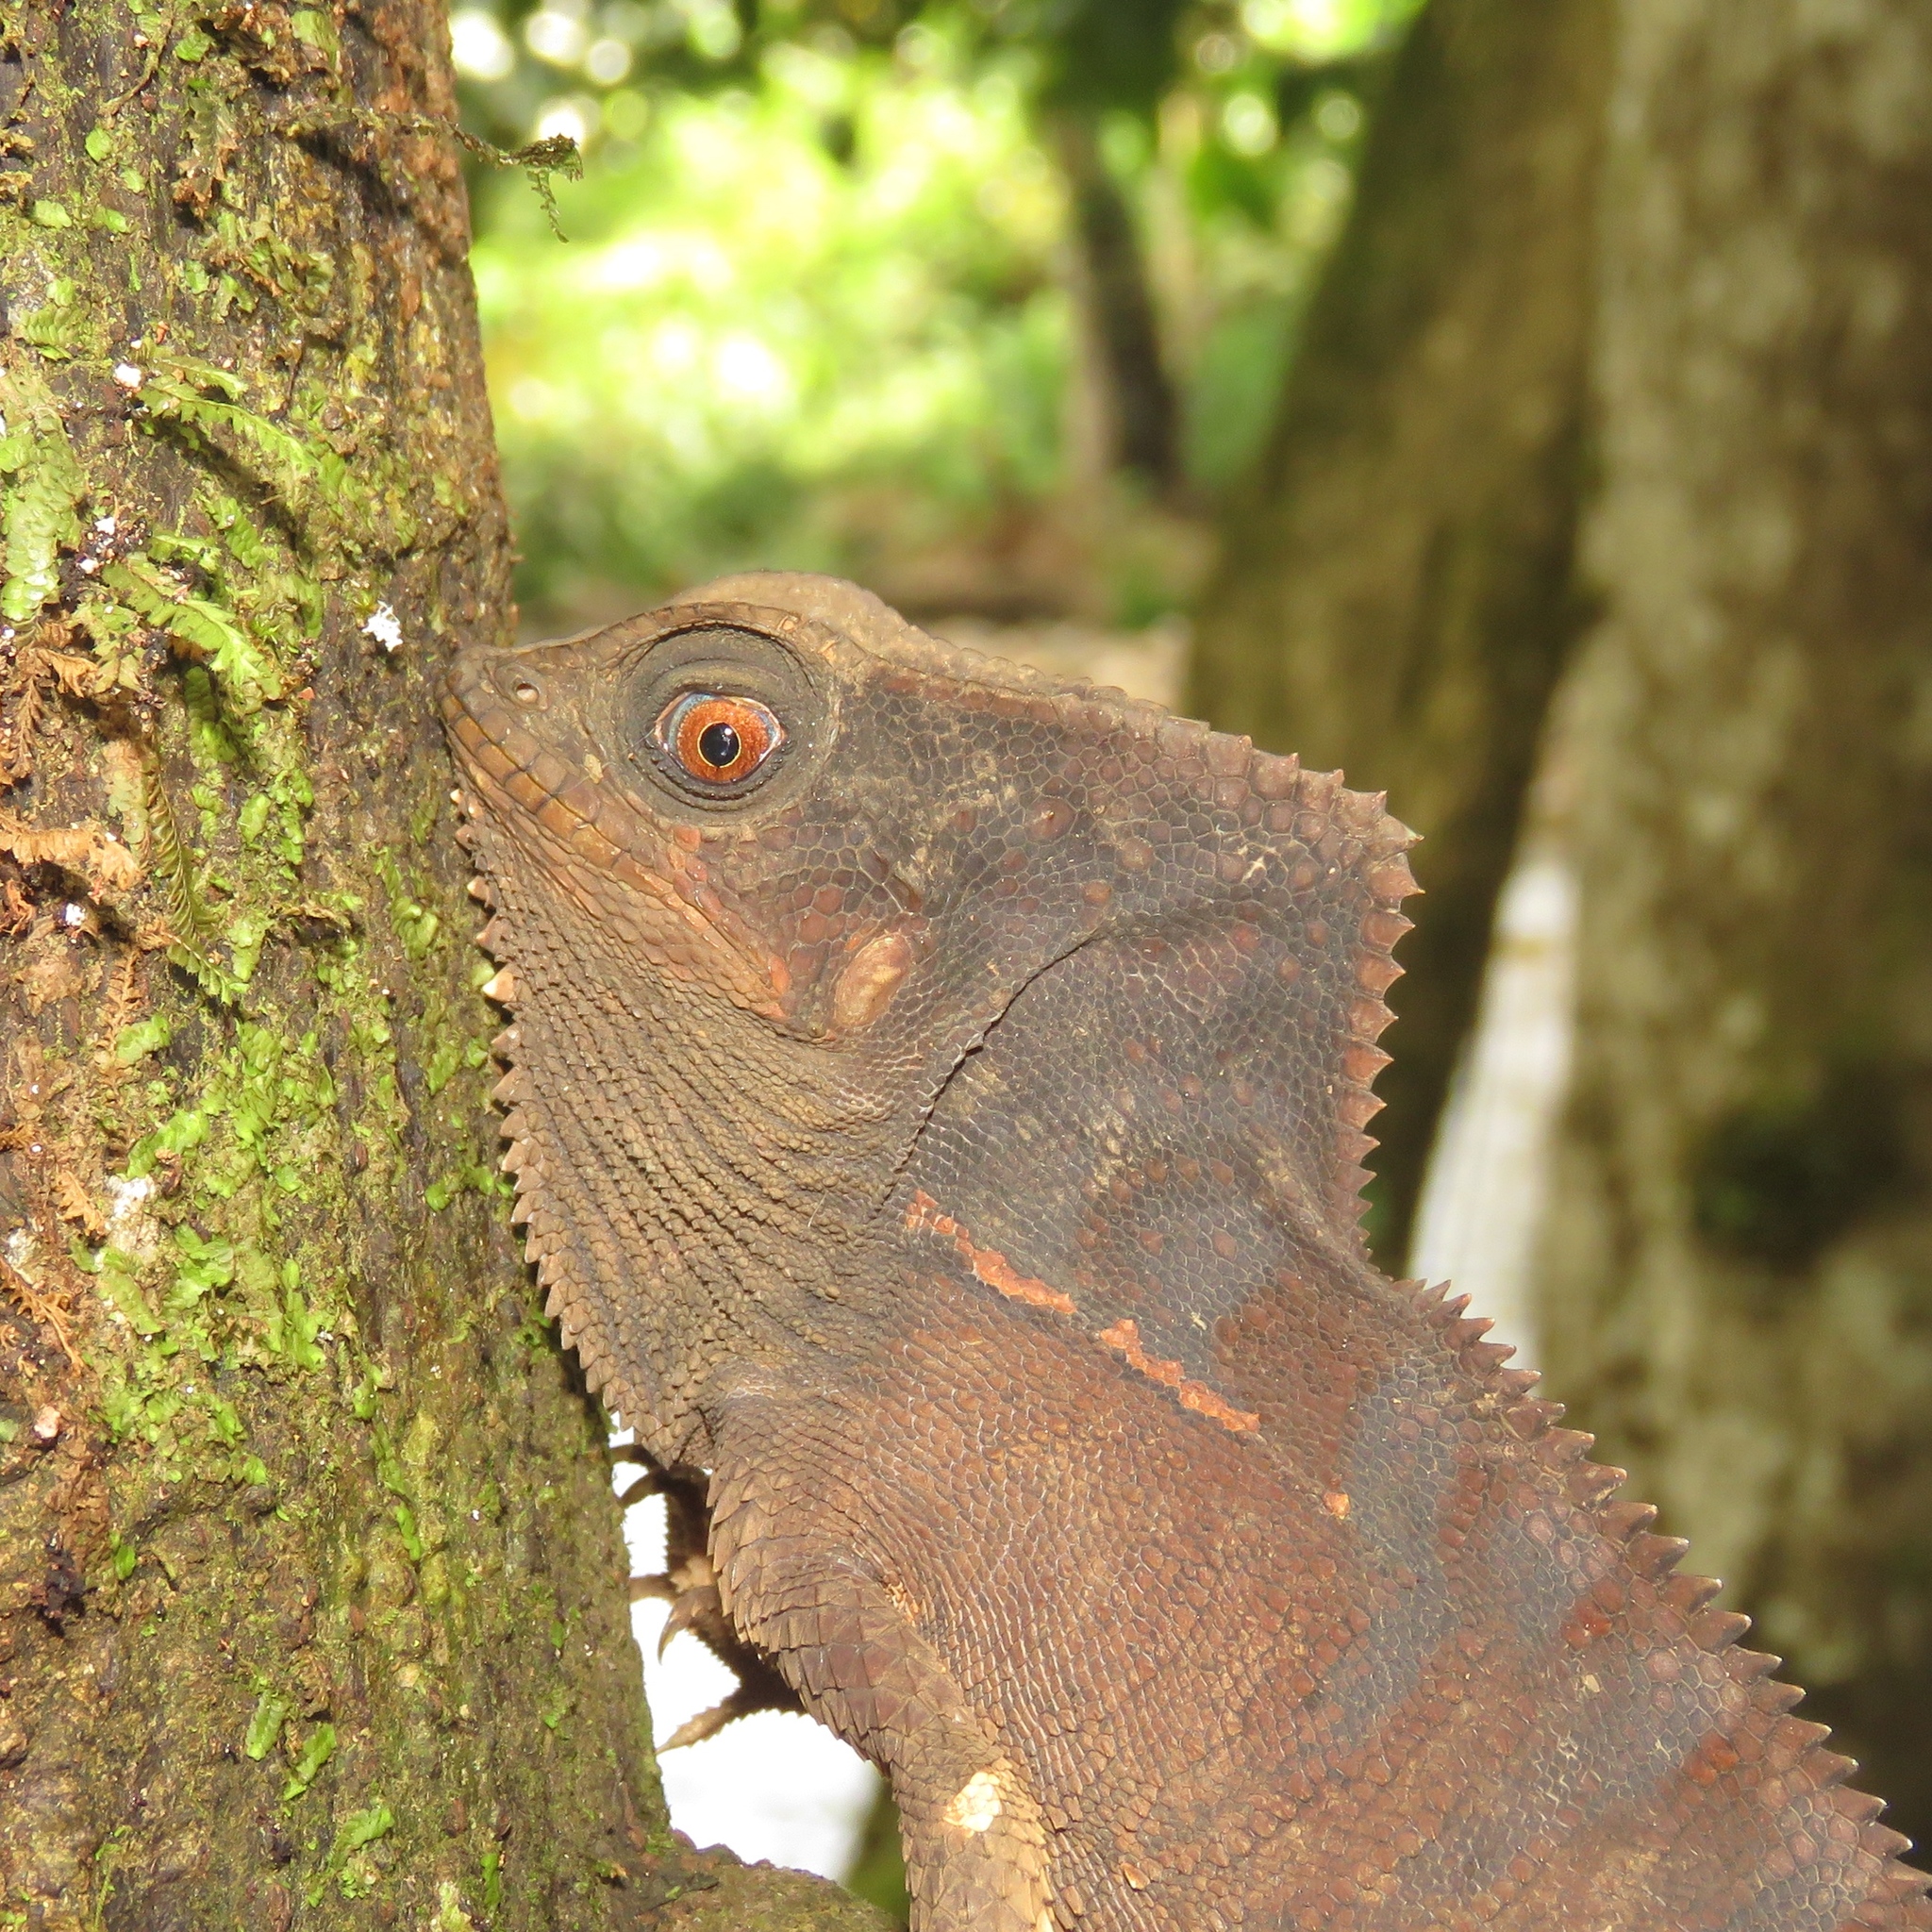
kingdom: Animalia
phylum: Chordata
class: Squamata
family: Corytophanidae
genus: Corytophanes
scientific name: Corytophanes cristatus
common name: Smooth helmeted iguana
